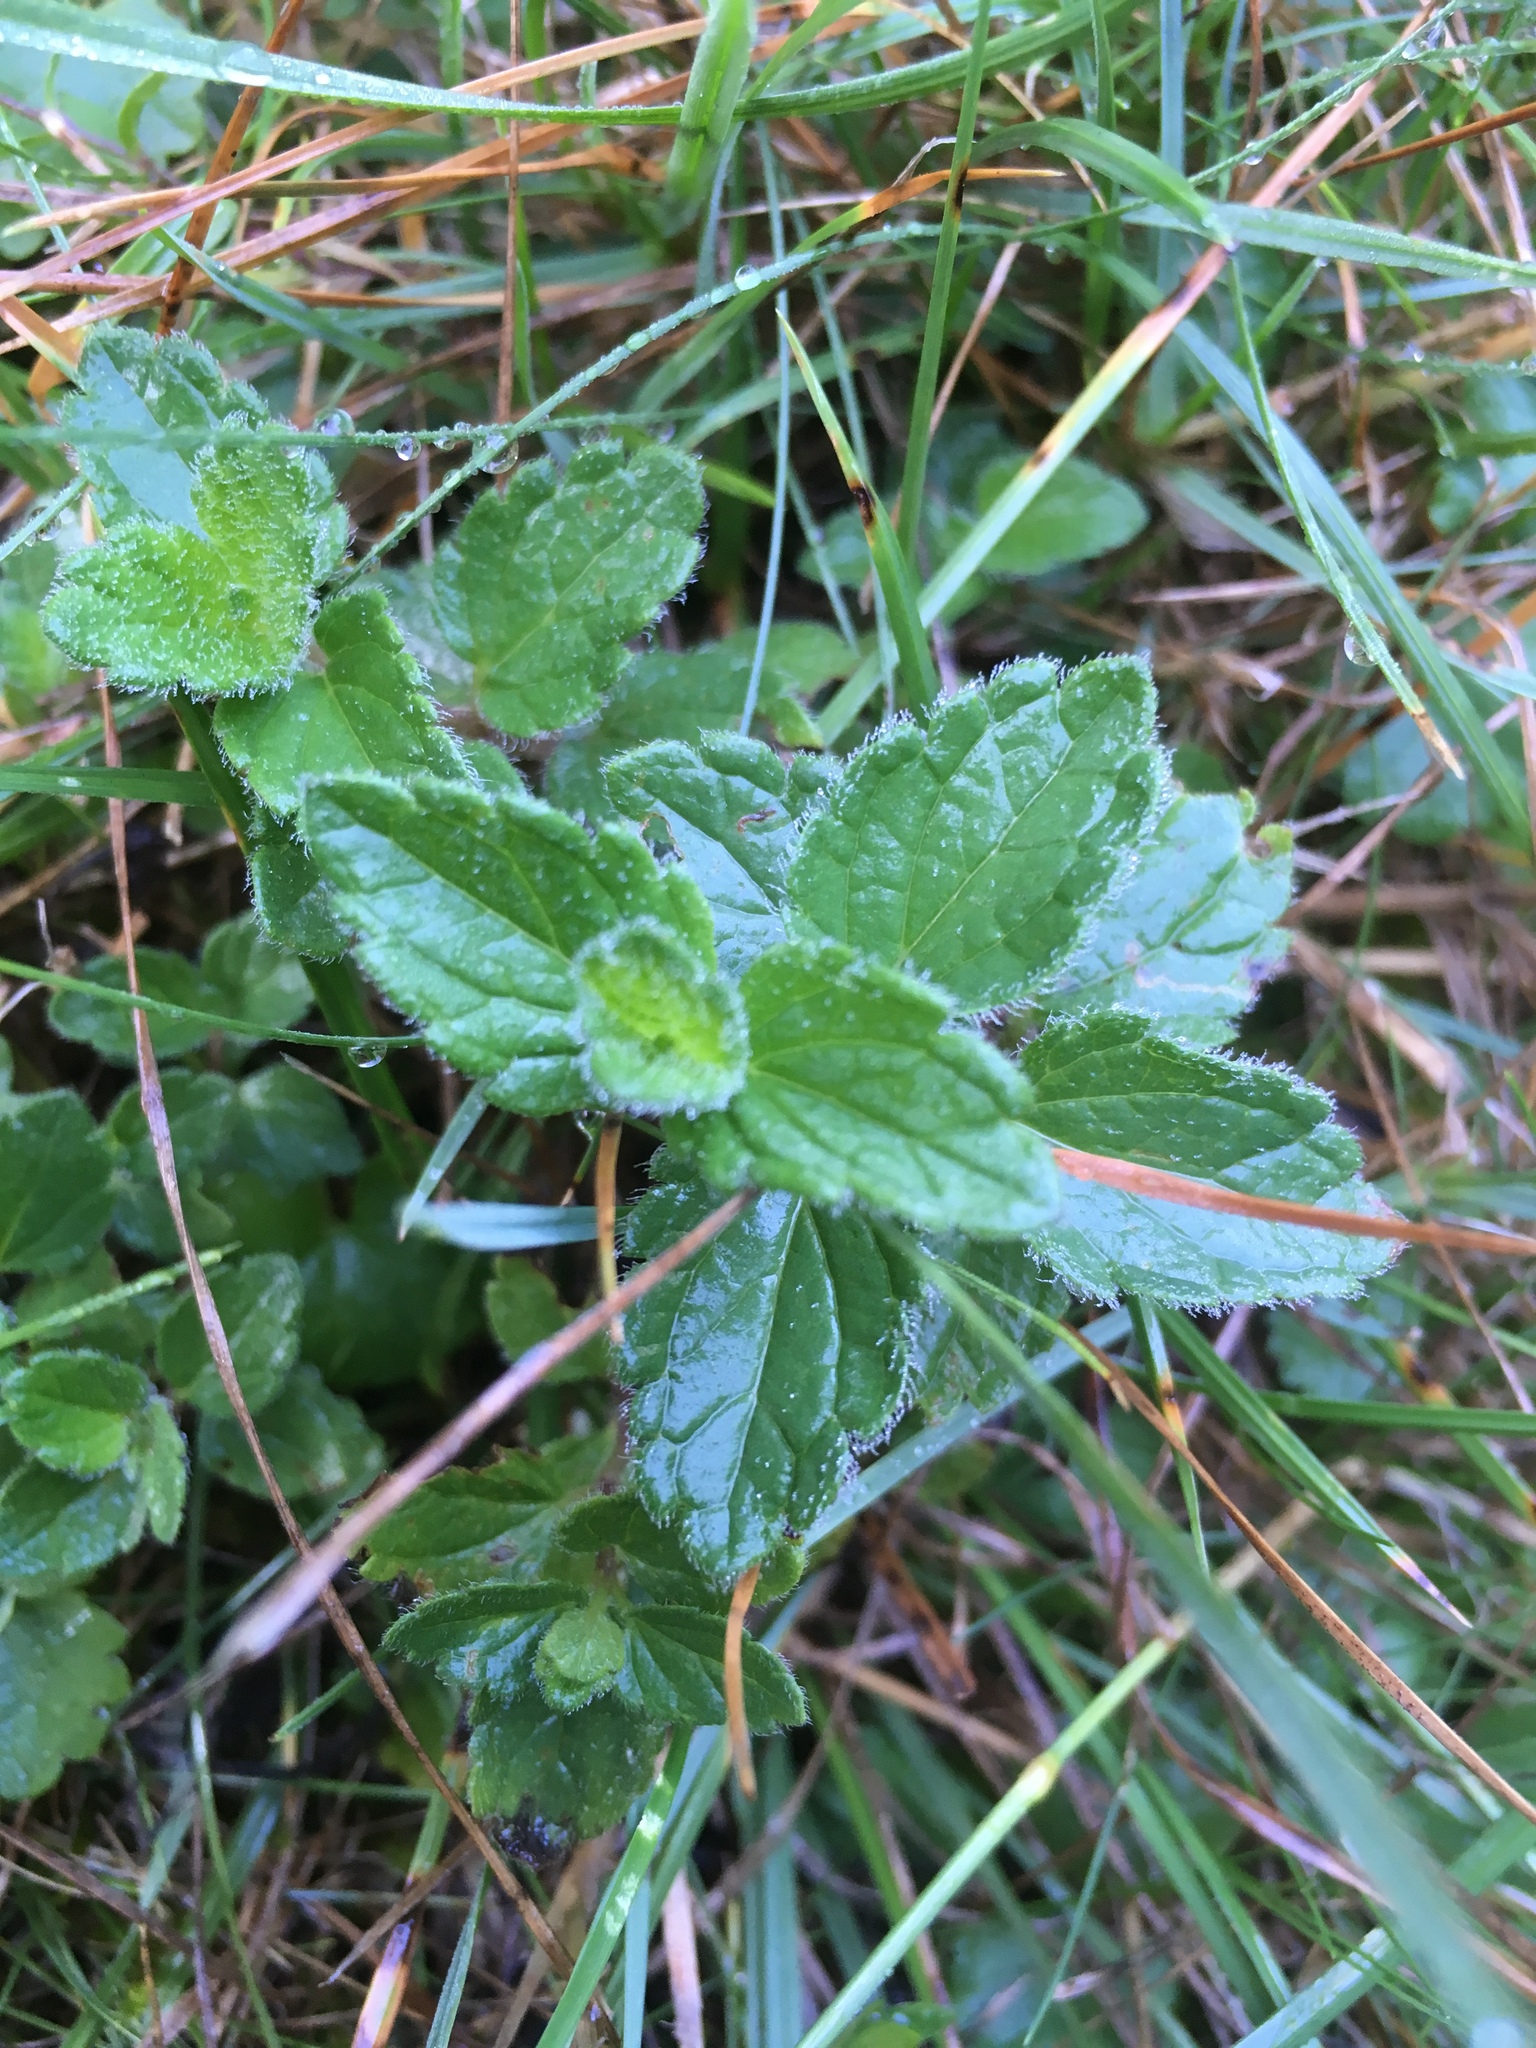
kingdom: Plantae
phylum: Tracheophyta
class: Magnoliopsida
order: Lamiales
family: Plantaginaceae
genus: Veronica
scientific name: Veronica chamaedrys
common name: Germander speedwell
